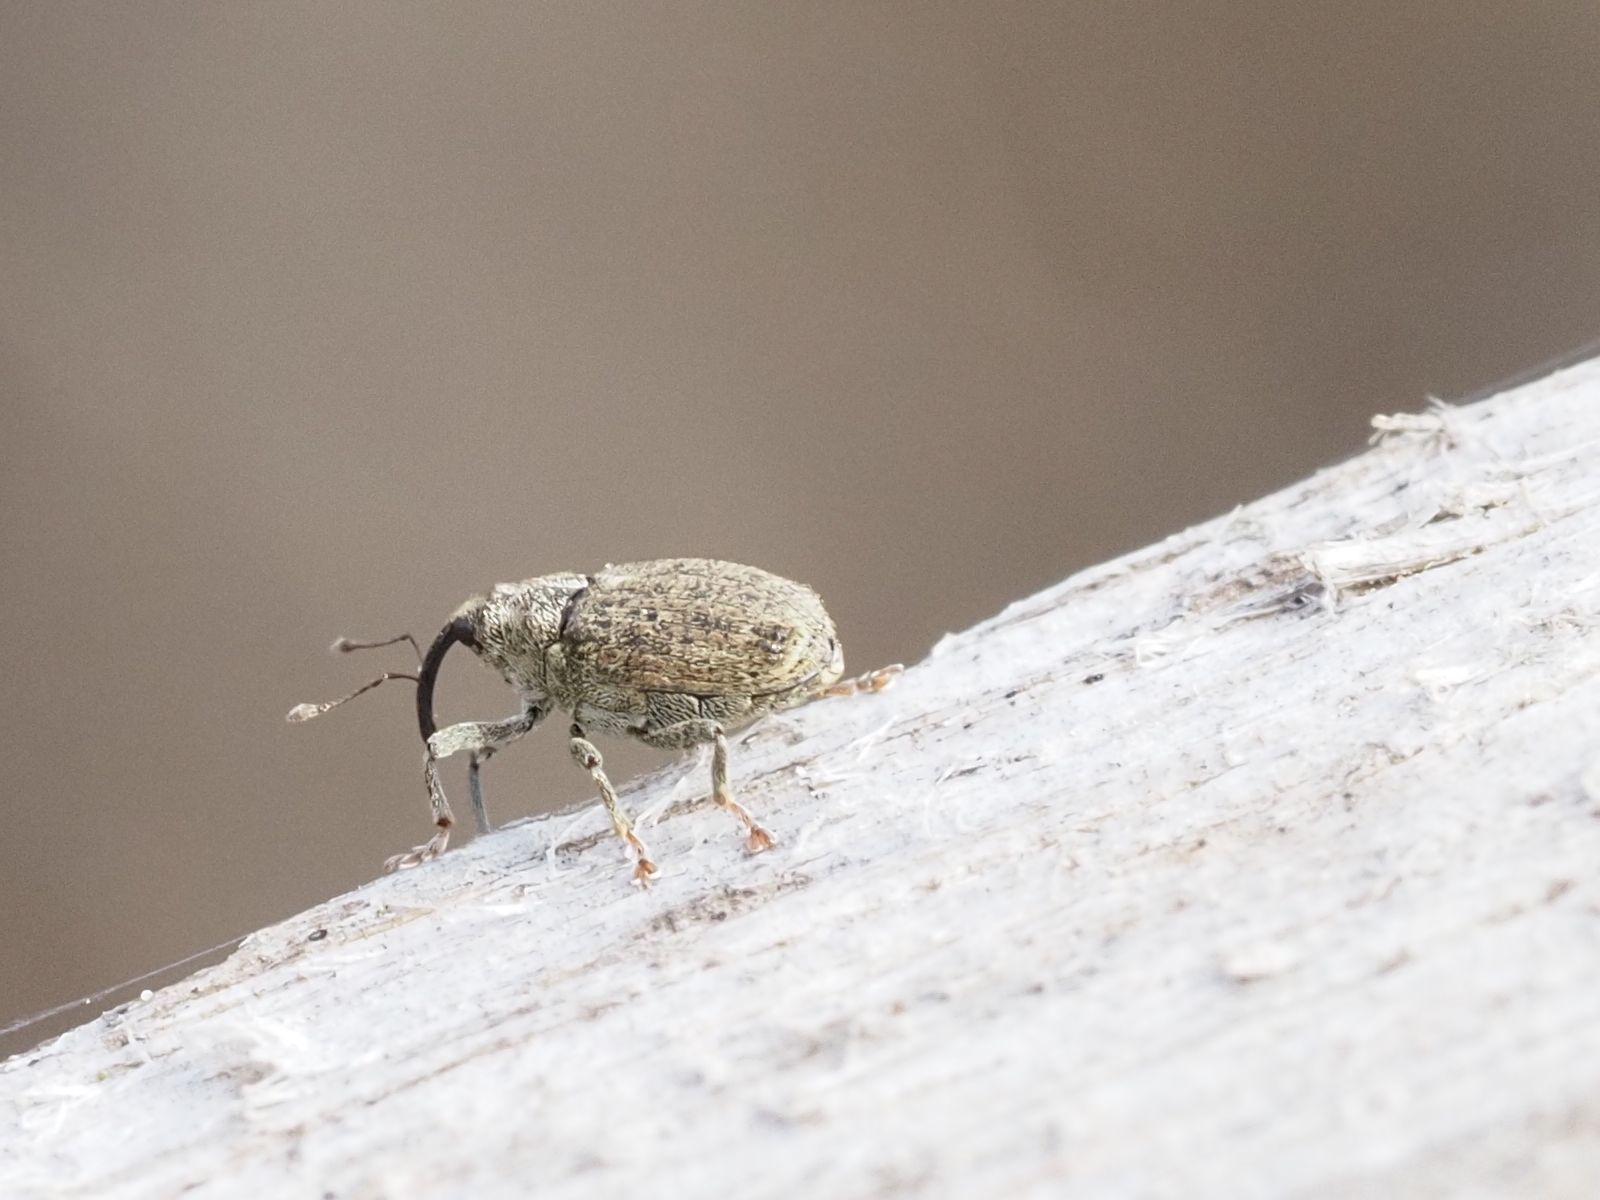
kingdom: Animalia
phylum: Arthropoda
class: Insecta
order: Coleoptera
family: Curculionidae
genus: Ceutorhynchus
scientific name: Ceutorhynchus pallidactylus
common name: Cabbage stem weavil
